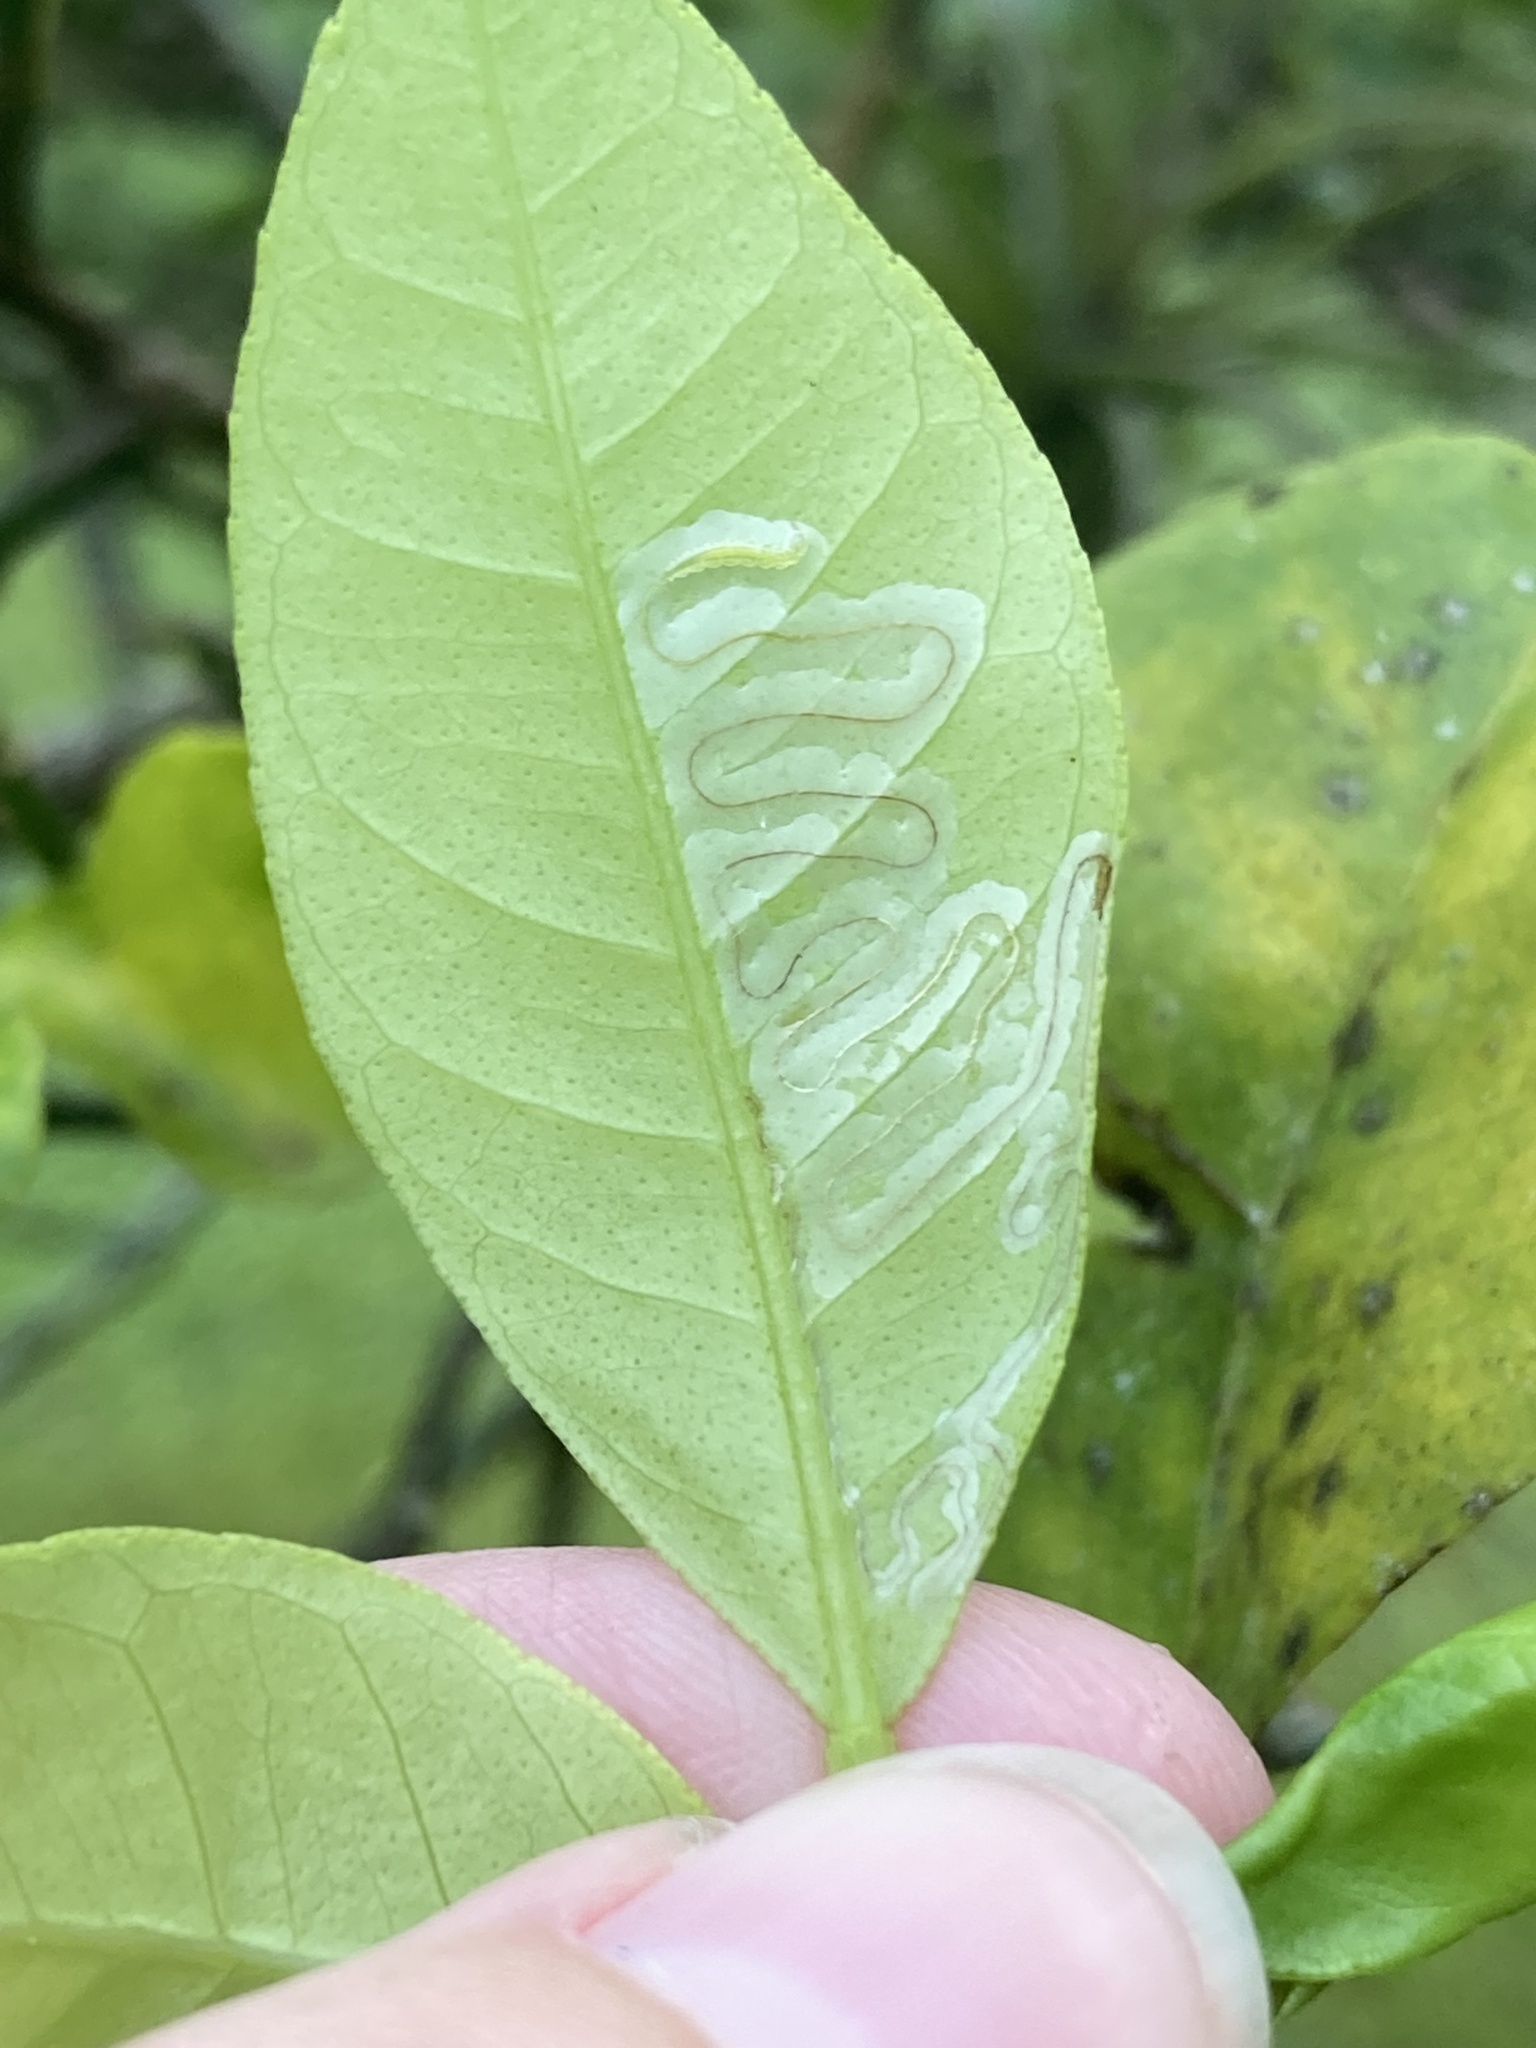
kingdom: Animalia
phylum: Arthropoda
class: Insecta
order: Lepidoptera
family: Gracillariidae
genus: Phyllocnistis
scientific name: Phyllocnistis citrella
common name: Citrus leafminer
